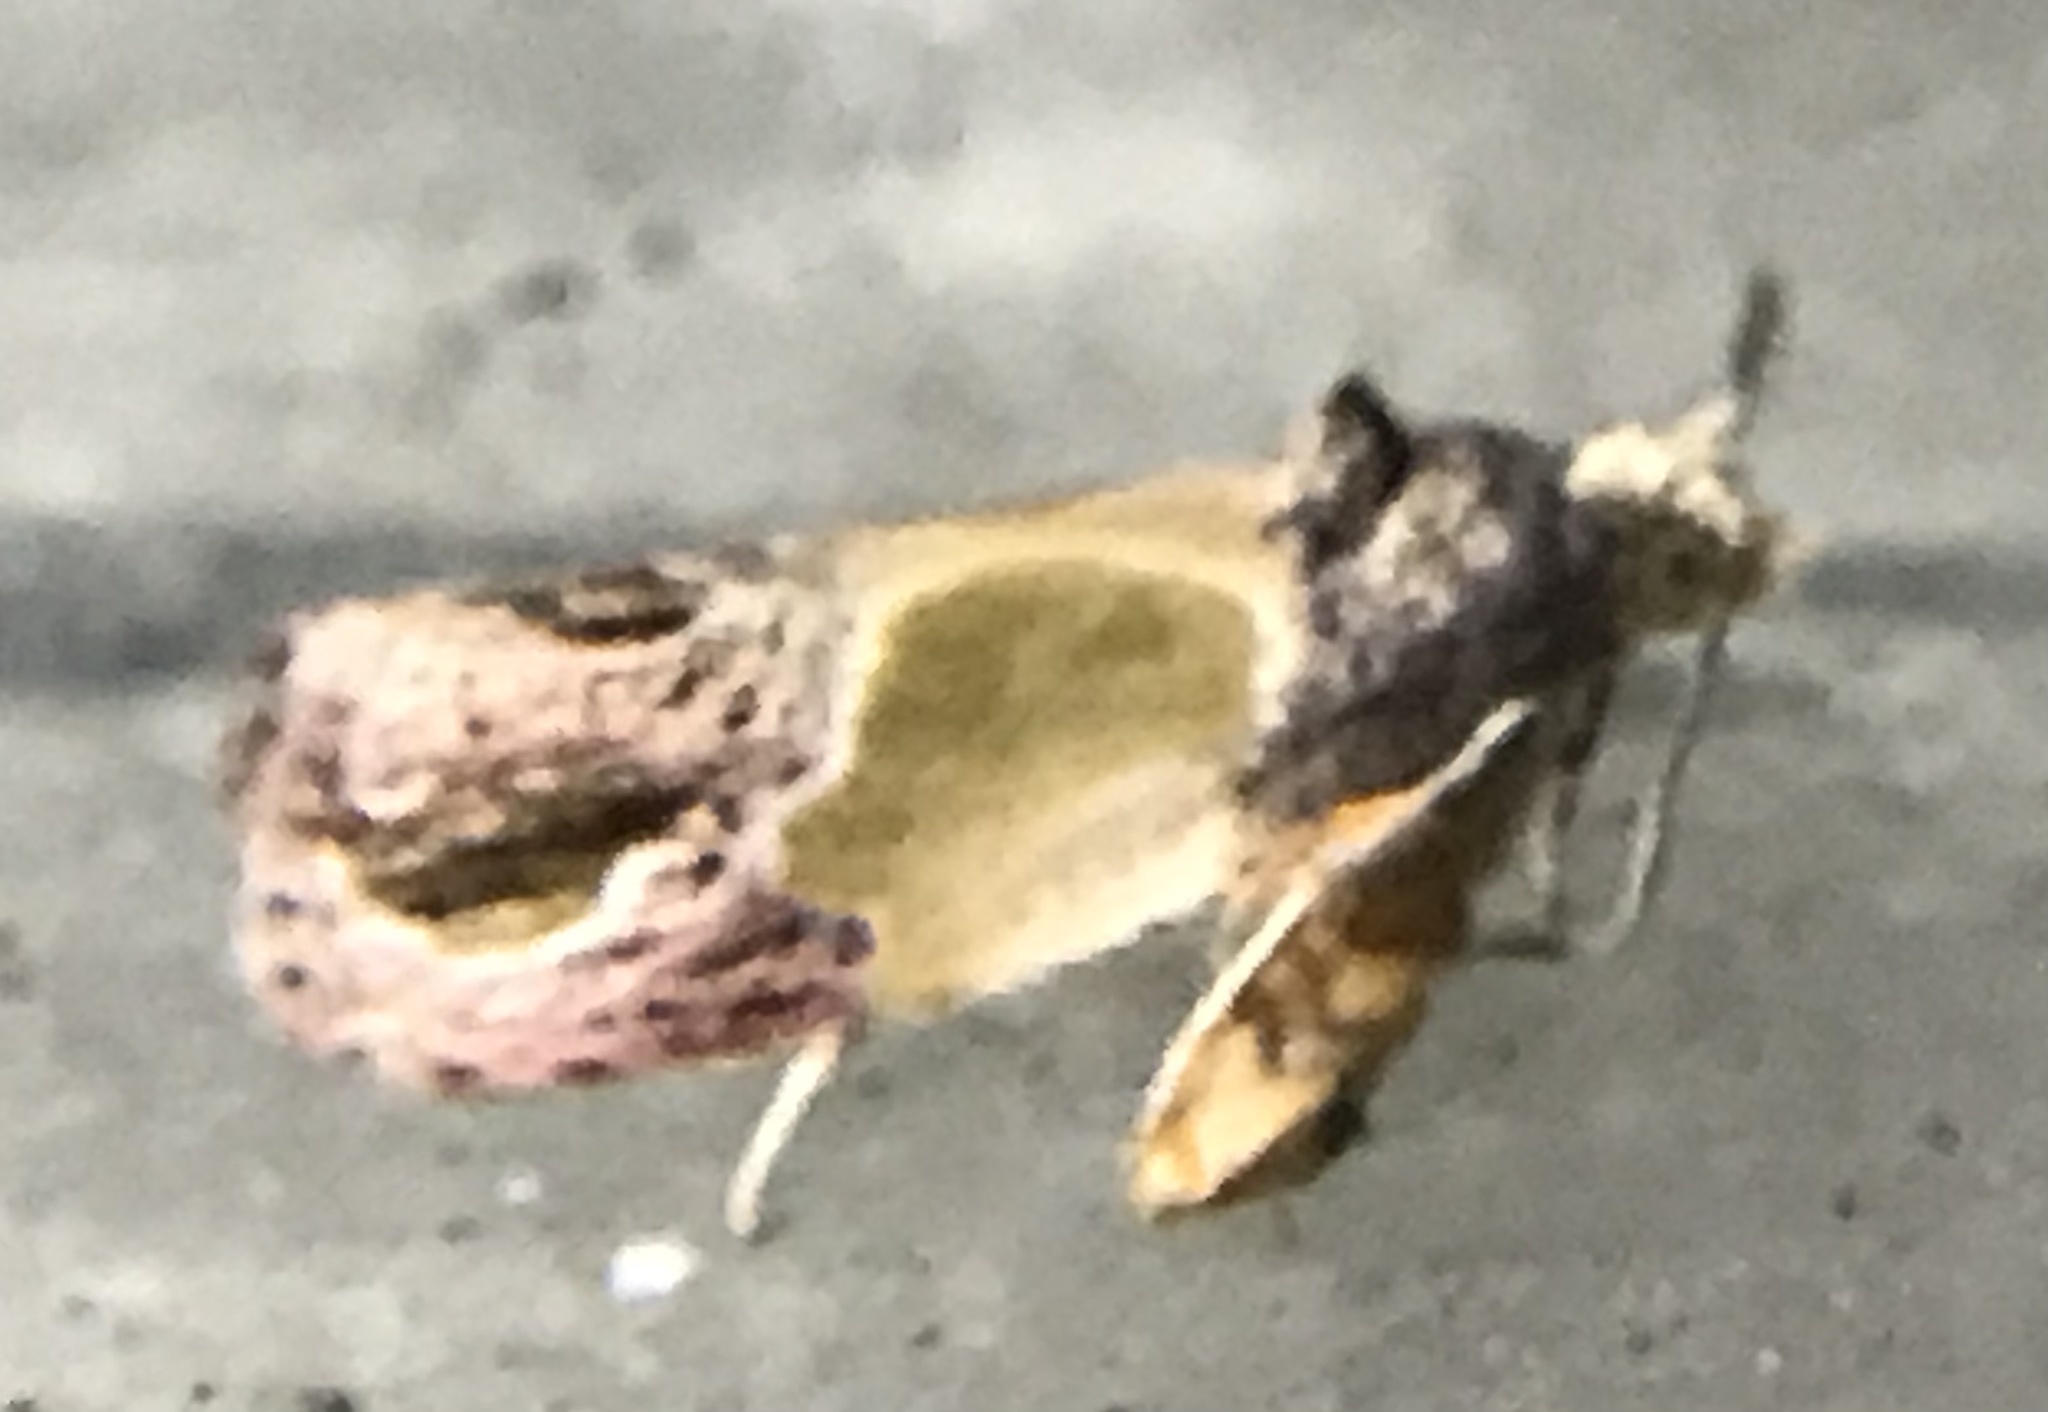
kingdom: Animalia
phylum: Arthropoda
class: Insecta
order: Lepidoptera
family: Tortricidae
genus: Eumarozia
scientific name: Eumarozia malachitana
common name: Sculptured moth
